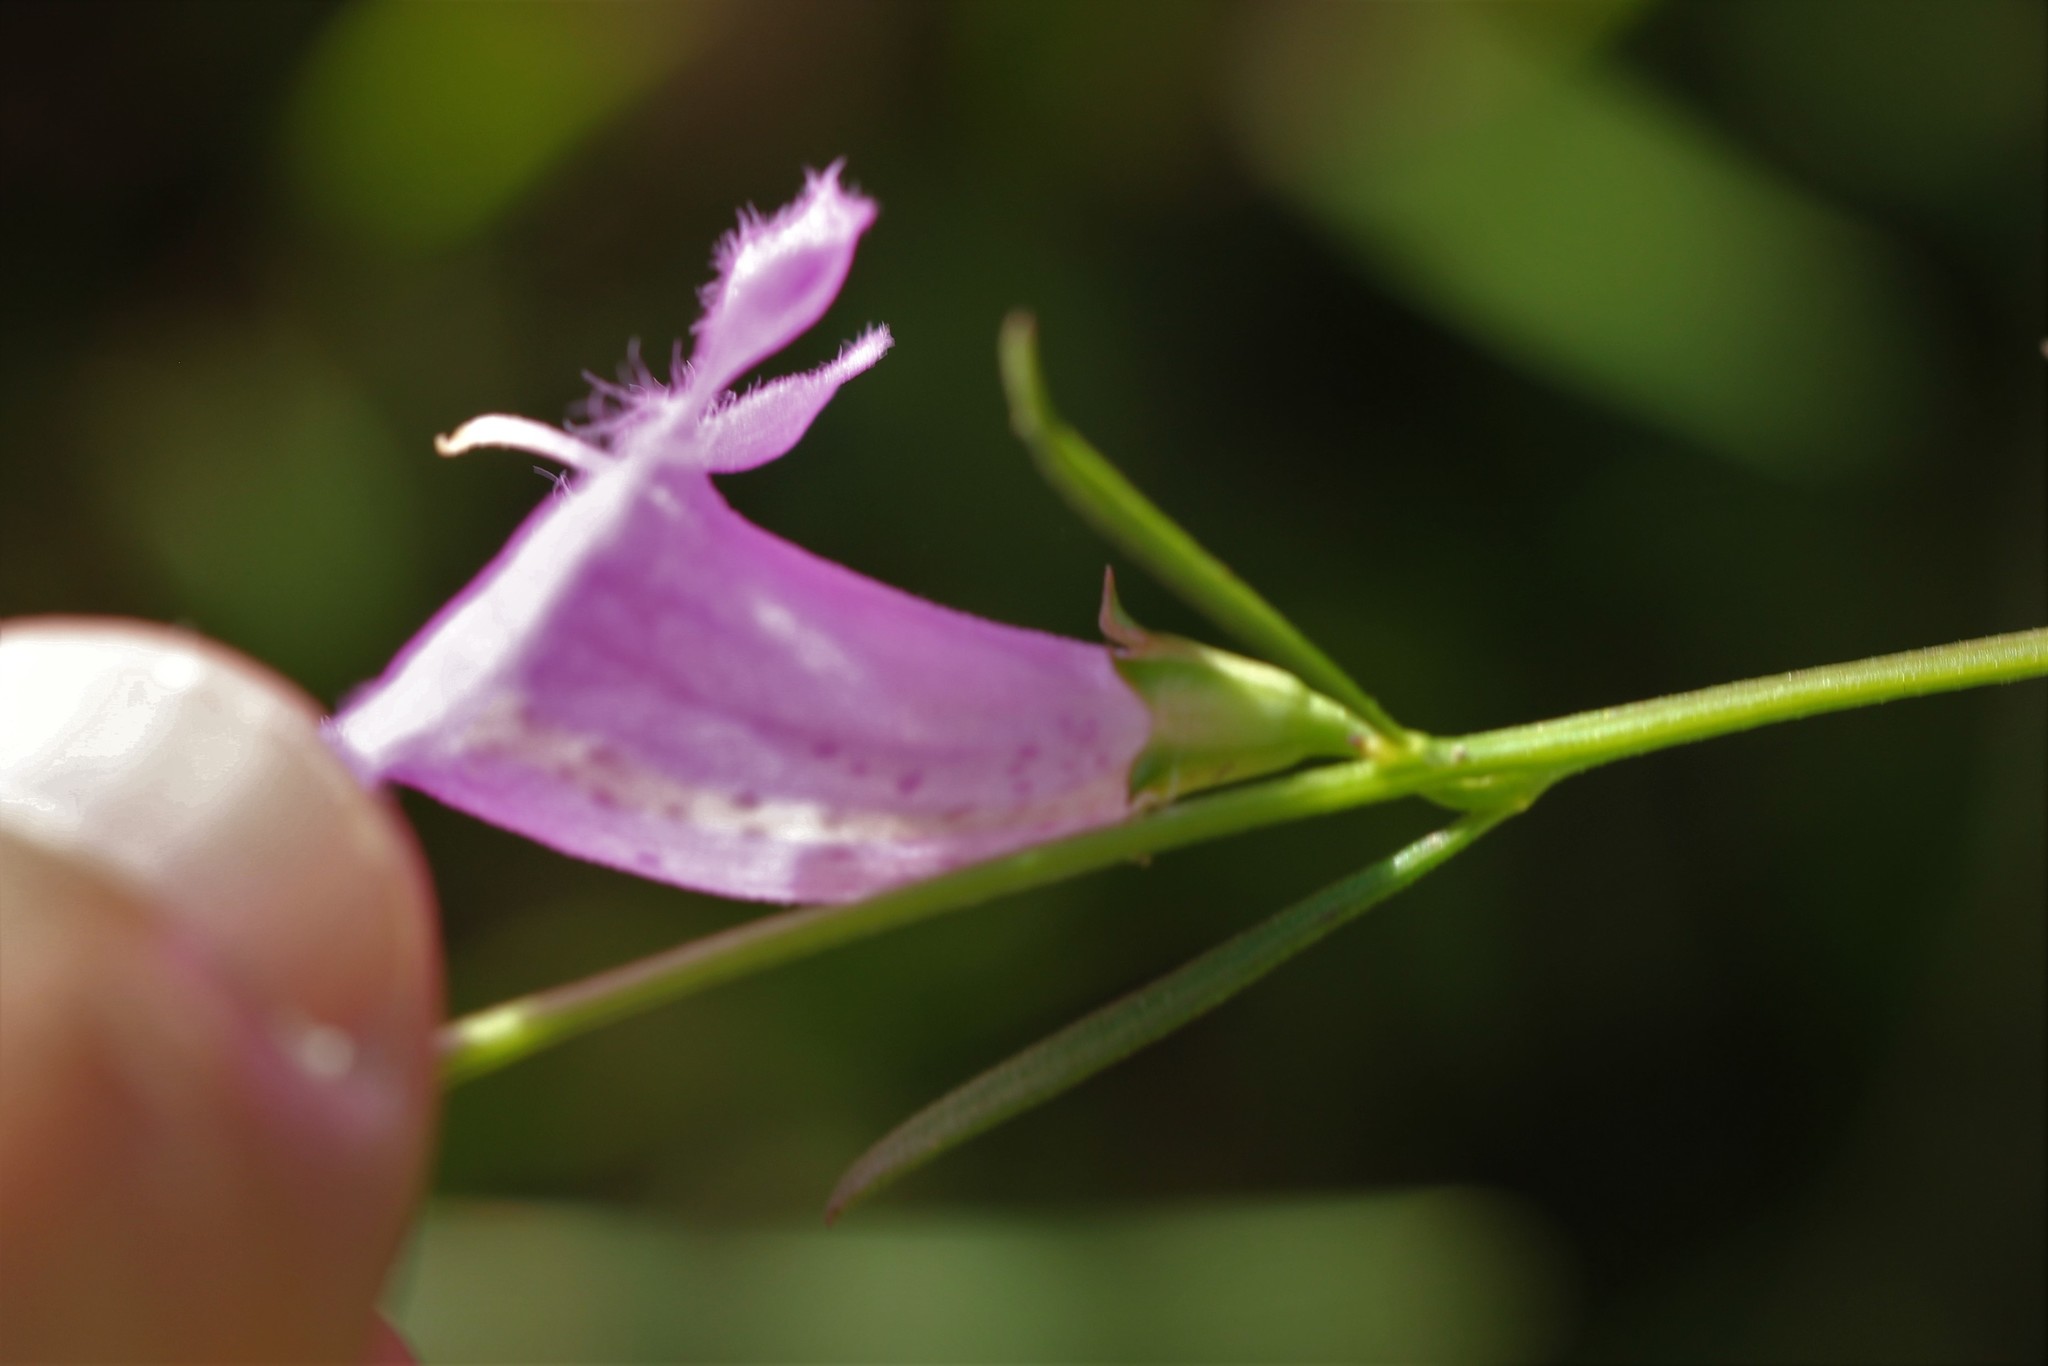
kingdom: Plantae
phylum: Tracheophyta
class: Magnoliopsida
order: Lamiales
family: Orobanchaceae
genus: Agalinis
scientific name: Agalinis purpurea
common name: Purple false foxglove
